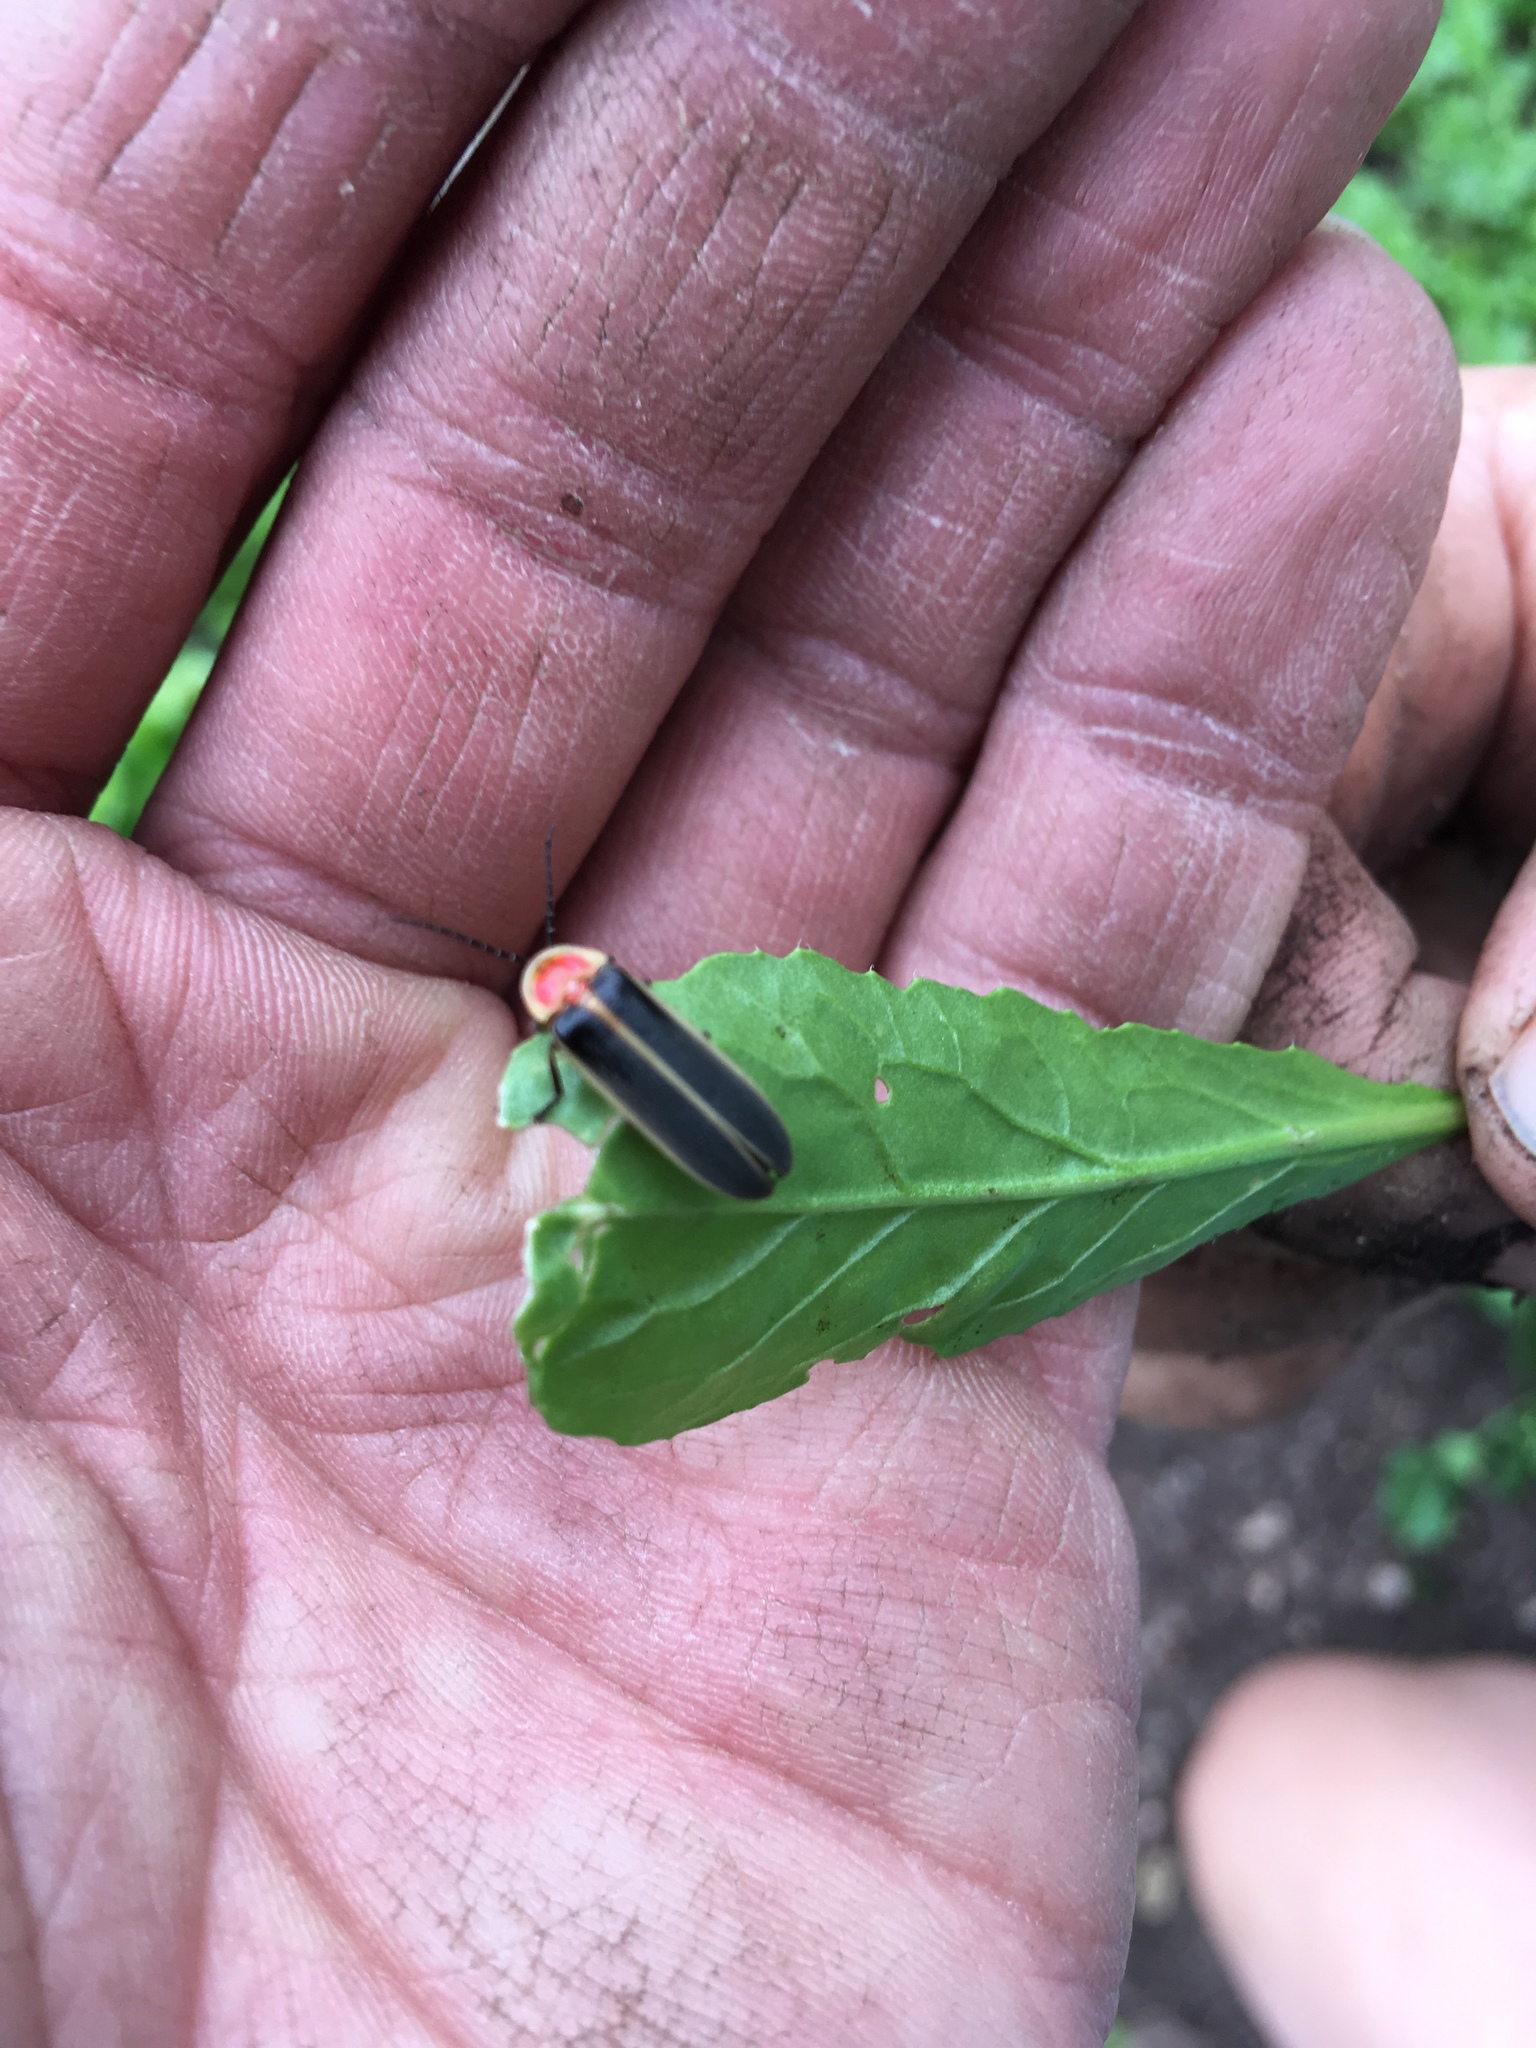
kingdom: Animalia
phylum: Arthropoda
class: Insecta
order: Coleoptera
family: Lampyridae
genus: Photinus
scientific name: Photinus pyralis
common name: Big dipper firefly
